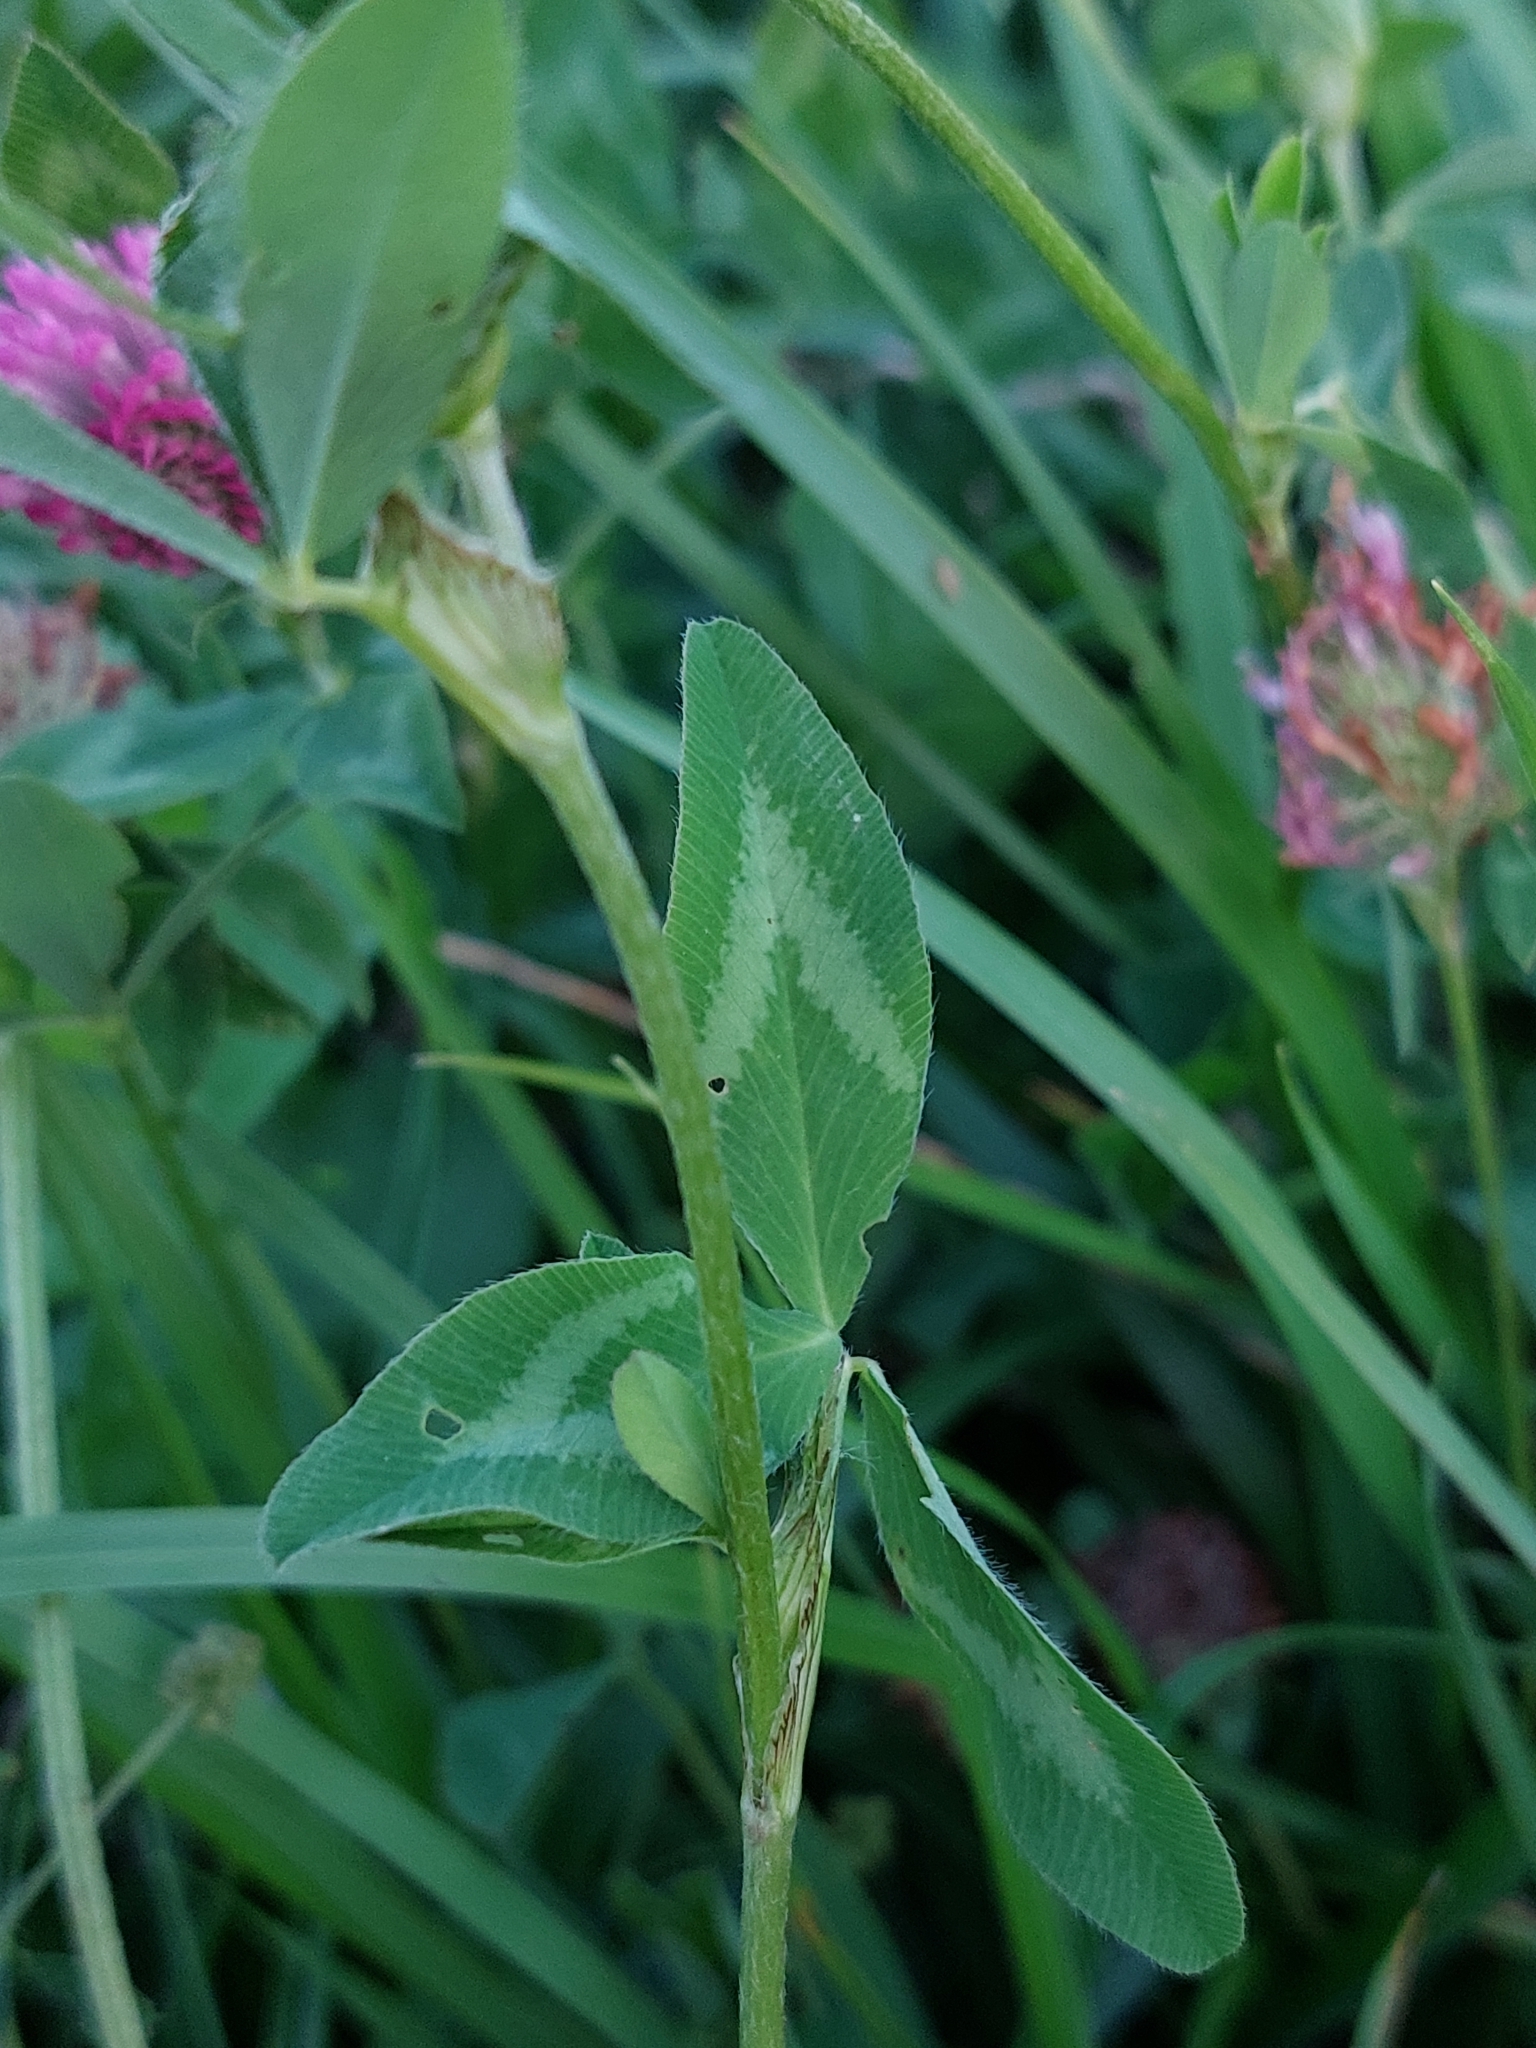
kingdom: Plantae
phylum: Tracheophyta
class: Magnoliopsida
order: Fabales
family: Fabaceae
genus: Trifolium
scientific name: Trifolium pratense
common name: Red clover
